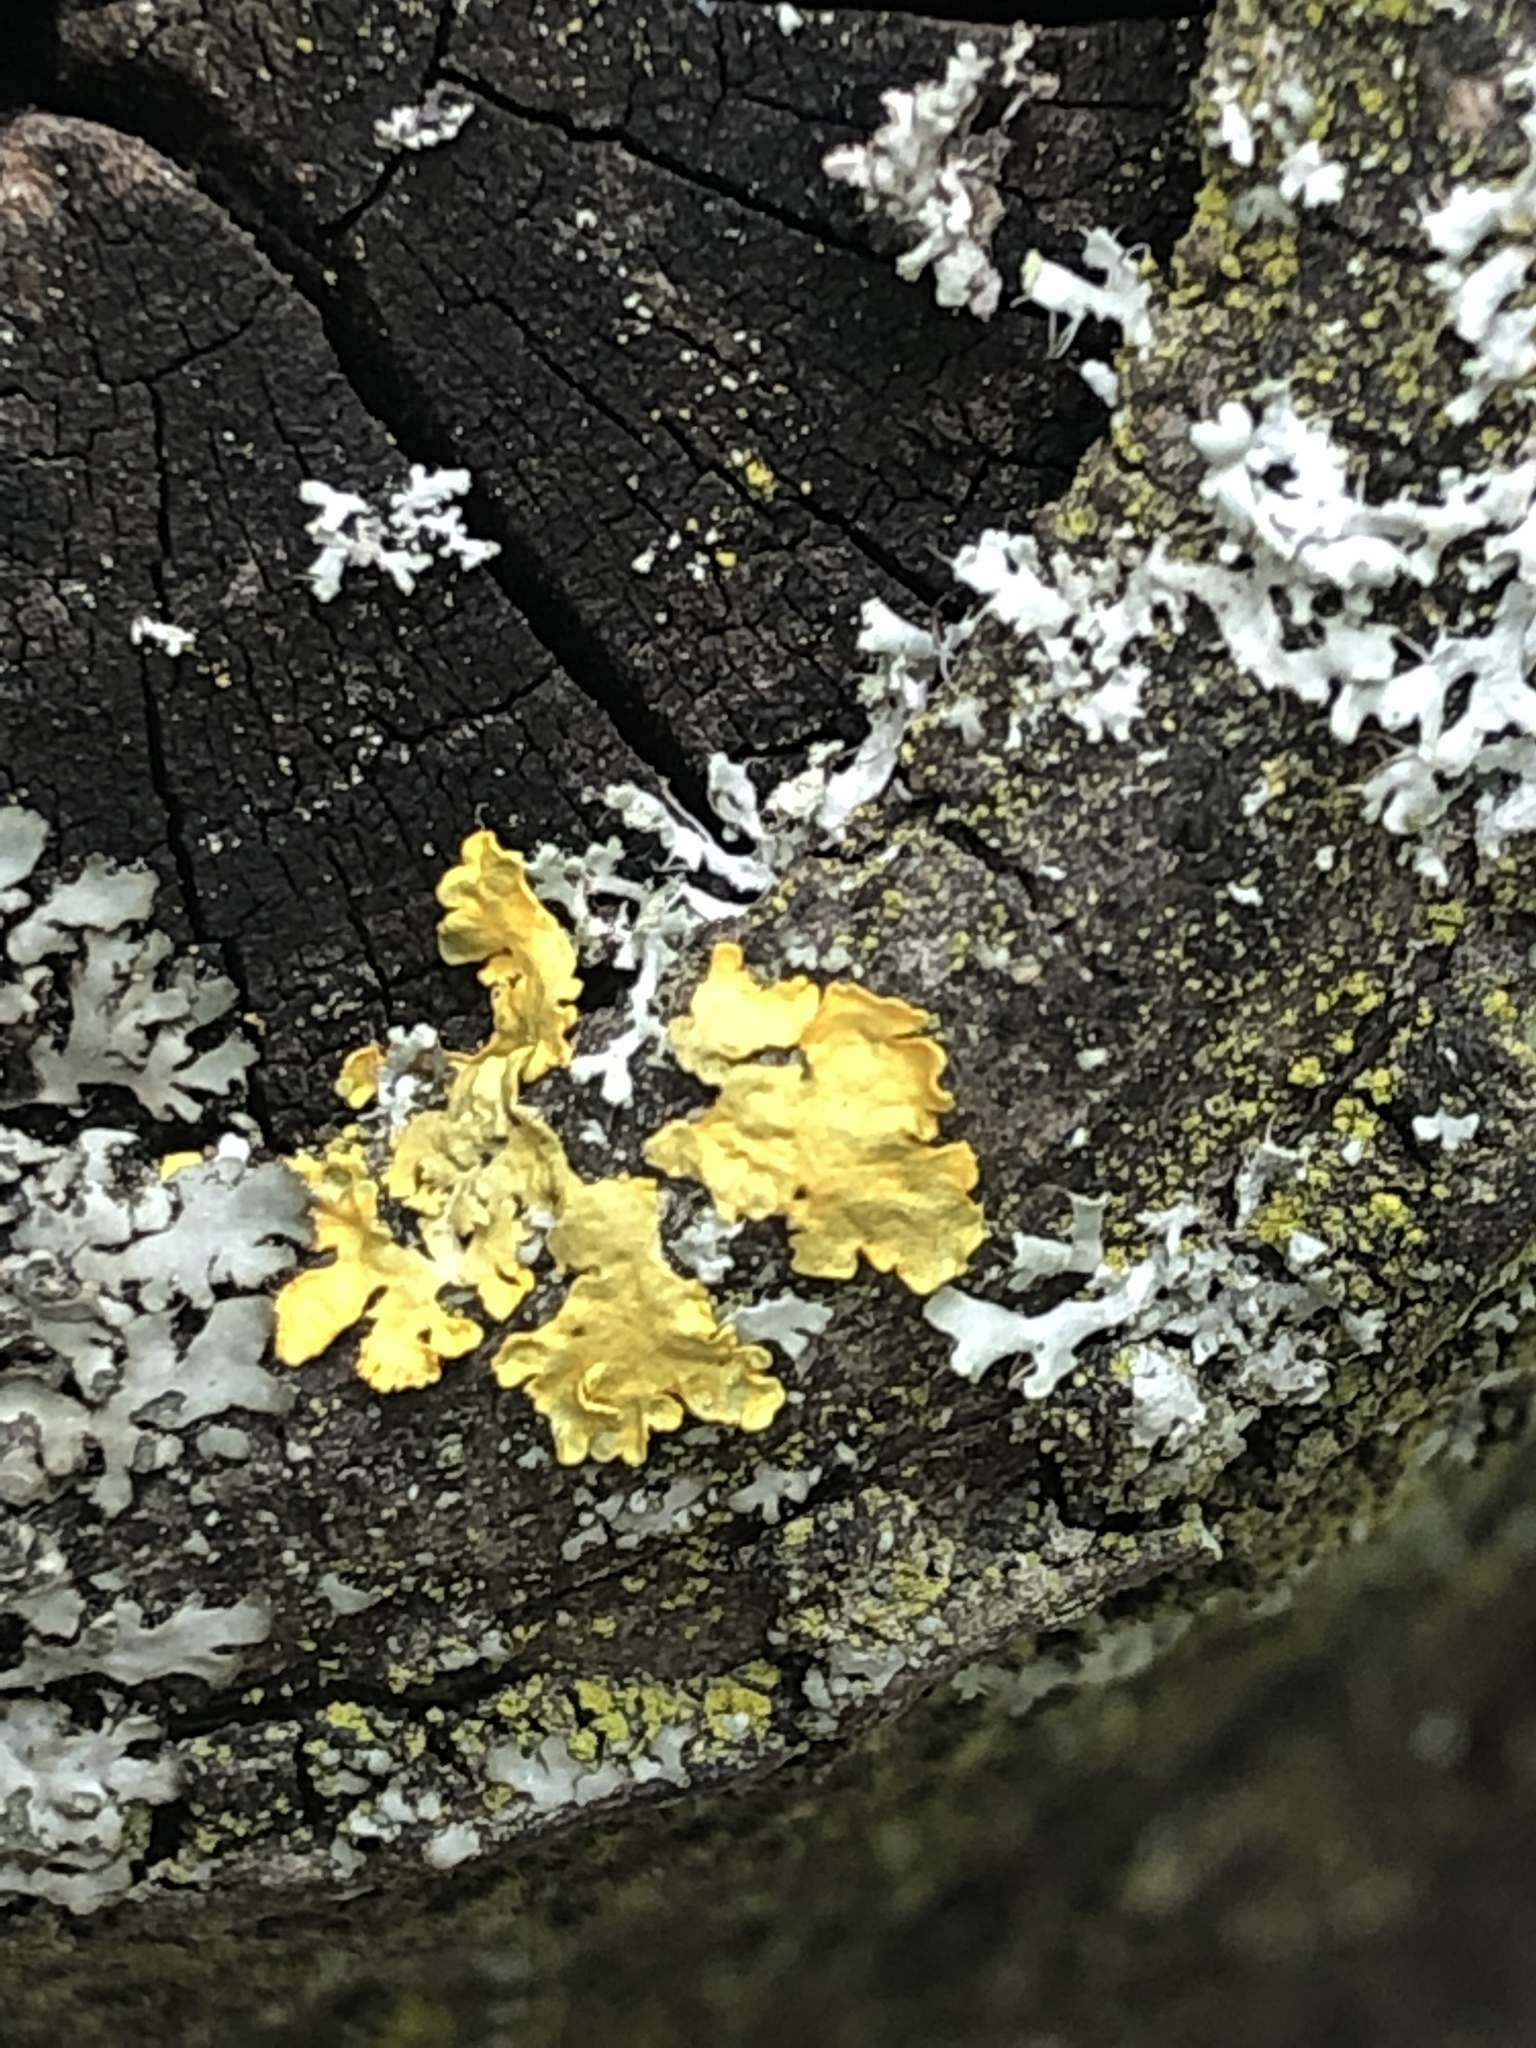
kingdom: Fungi
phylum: Ascomycota
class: Lecanoromycetes
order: Teloschistales
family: Teloschistaceae
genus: Xanthoria
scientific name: Xanthoria parietina
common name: Common orange lichen
